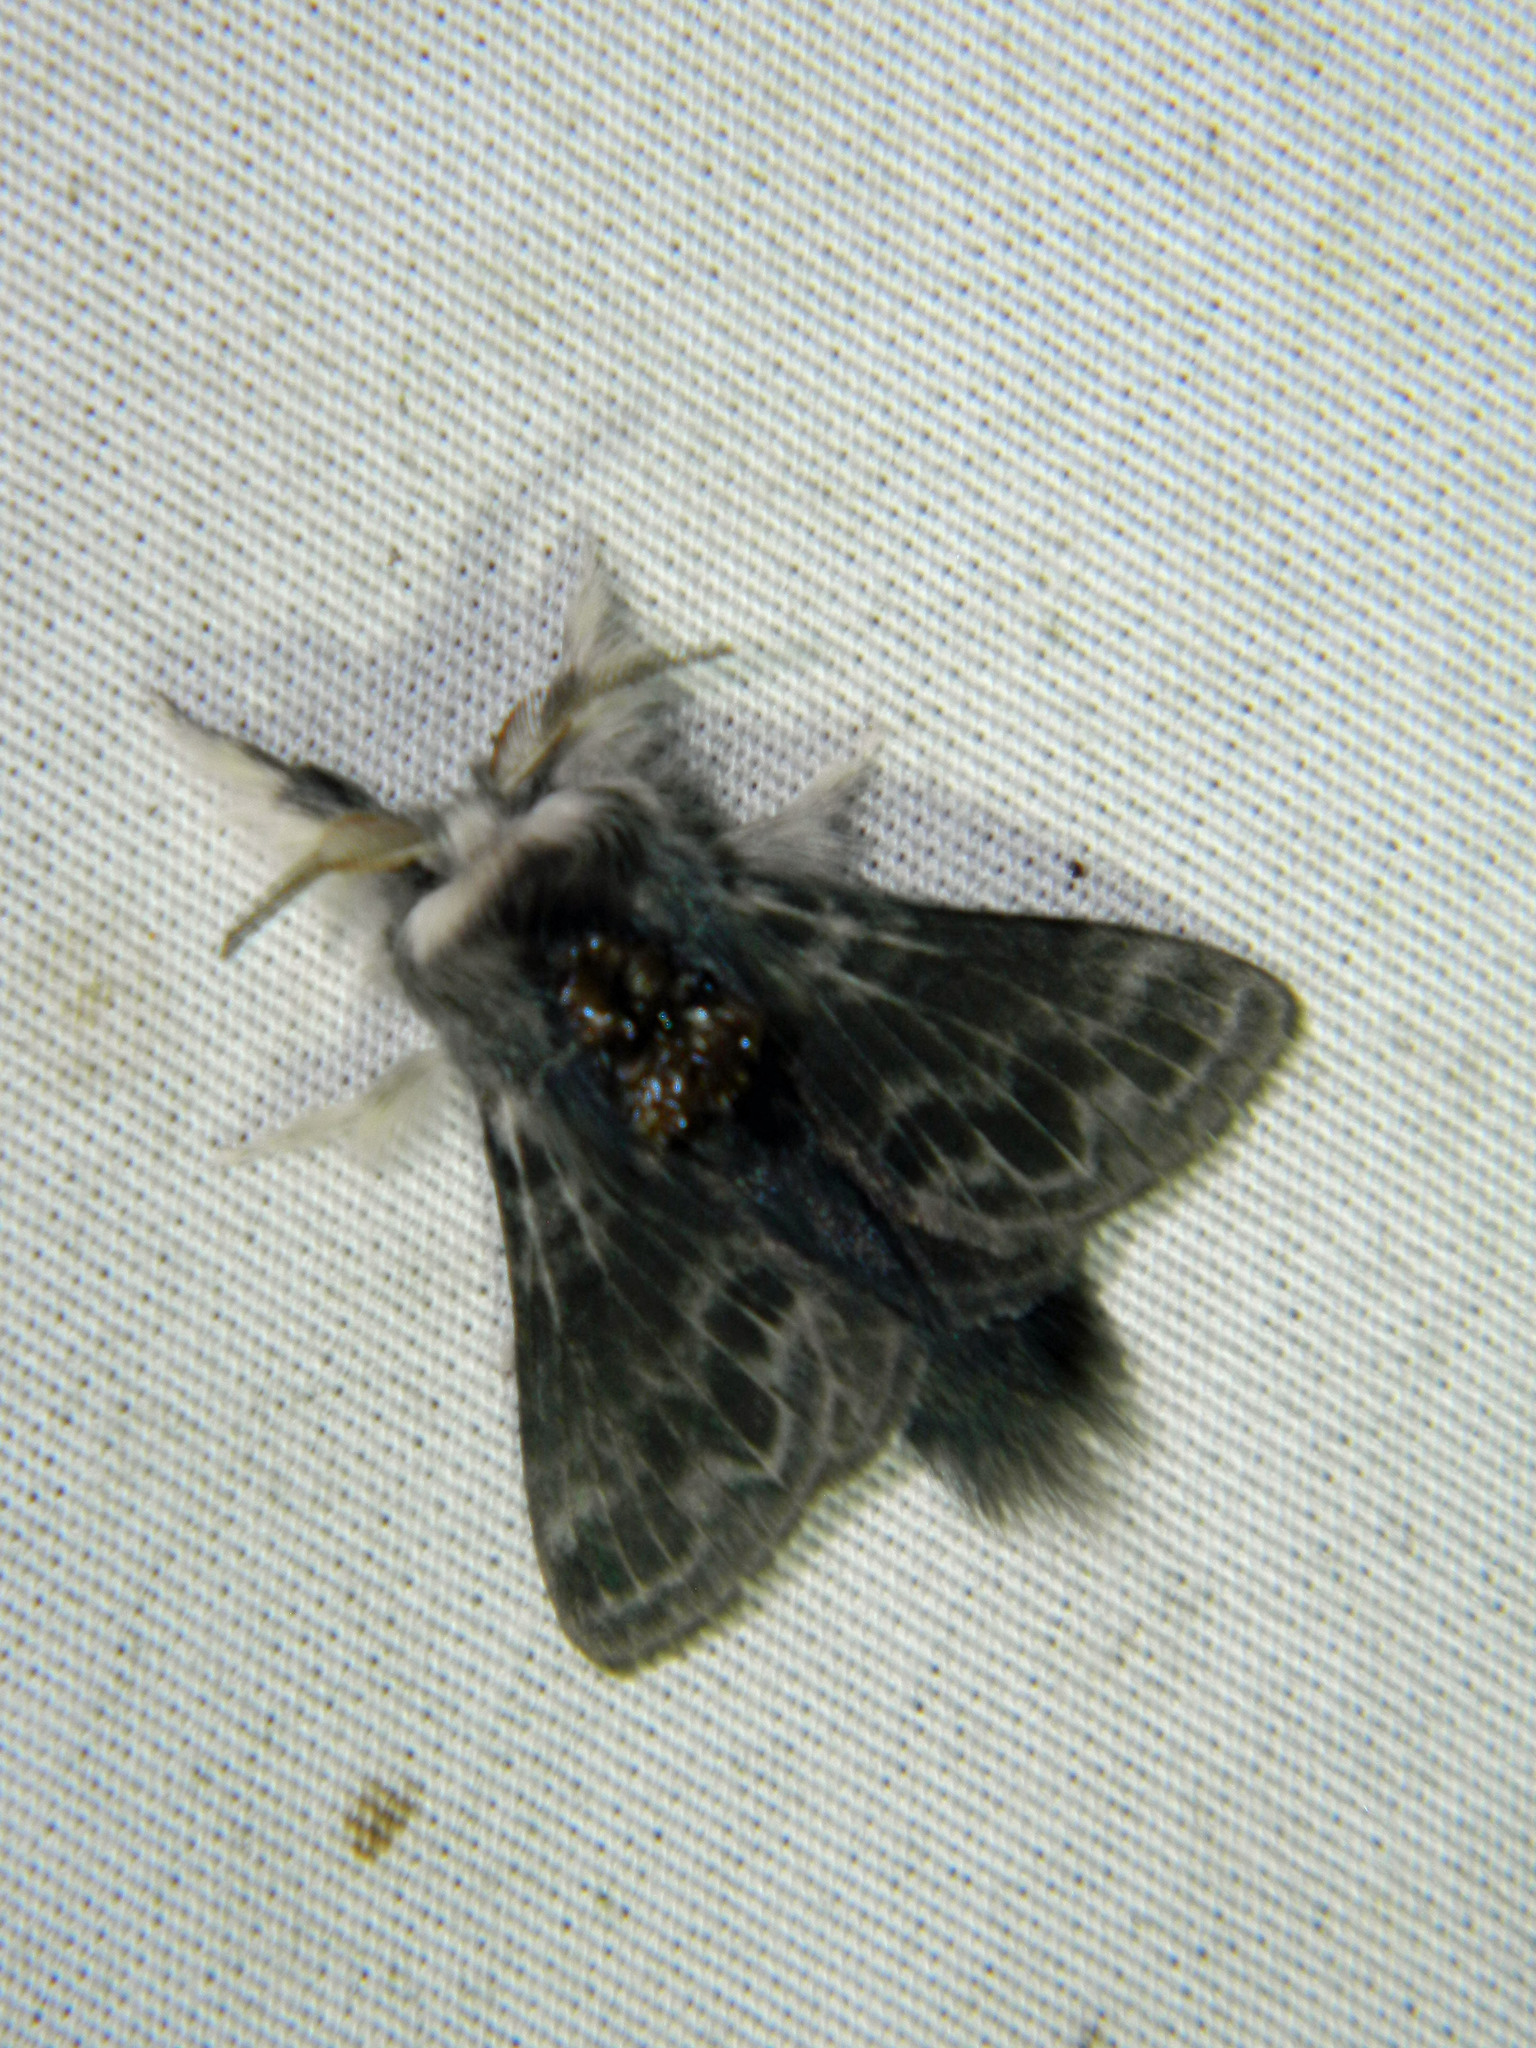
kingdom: Animalia
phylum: Arthropoda
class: Insecta
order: Lepidoptera
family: Lasiocampidae
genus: Tolype
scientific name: Tolype laricis
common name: Larch tolype moth
